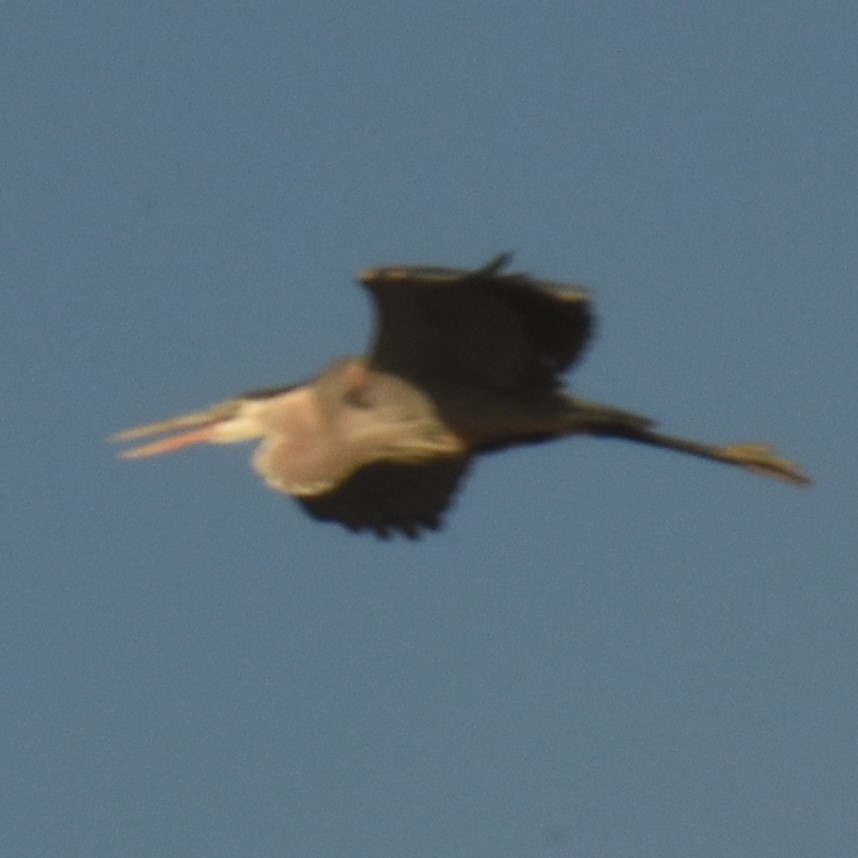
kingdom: Animalia
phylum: Chordata
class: Aves
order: Pelecaniformes
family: Ardeidae
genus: Ardea
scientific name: Ardea herodias
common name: Great blue heron
